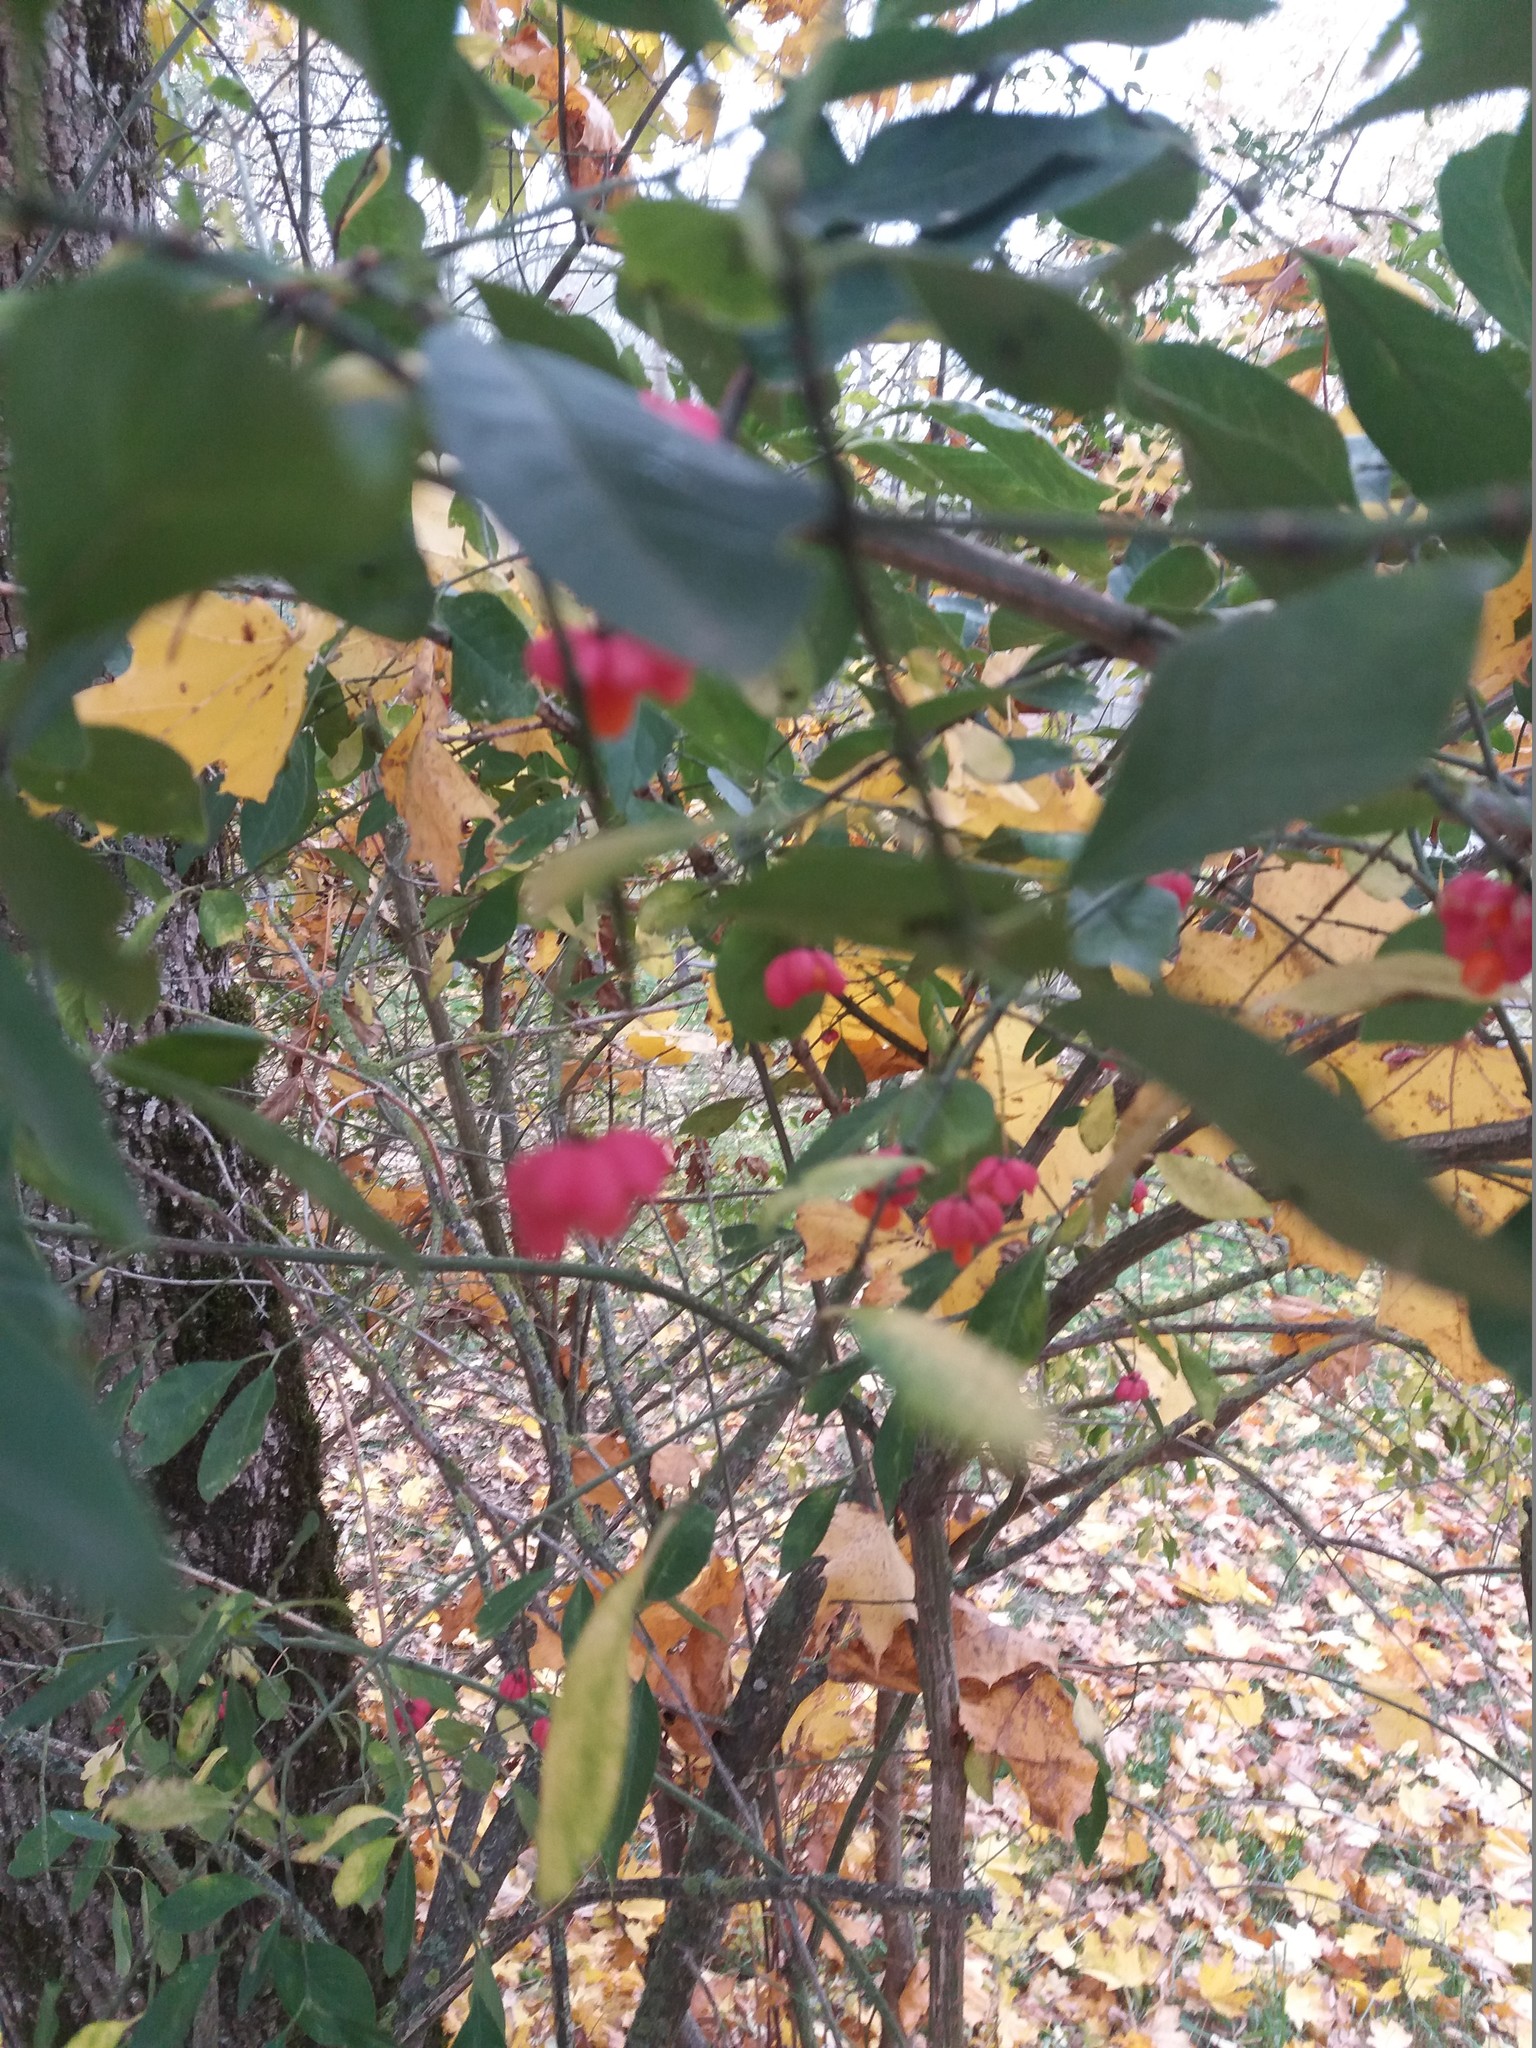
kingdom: Plantae
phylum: Tracheophyta
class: Magnoliopsida
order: Celastrales
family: Celastraceae
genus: Euonymus
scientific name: Euonymus europaeus
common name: Spindle
